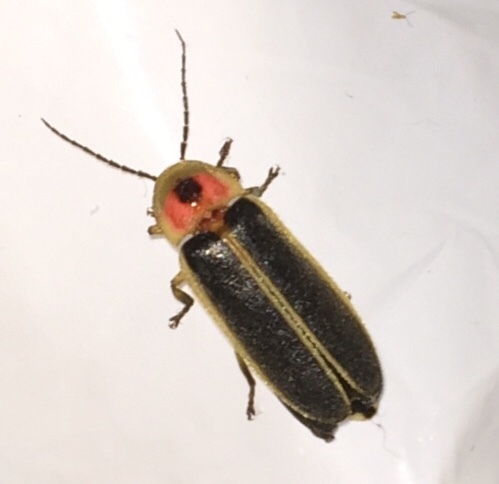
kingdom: Animalia
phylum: Arthropoda
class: Insecta
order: Coleoptera
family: Lampyridae
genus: Photinus
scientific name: Photinus pyralis
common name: Big dipper firefly
